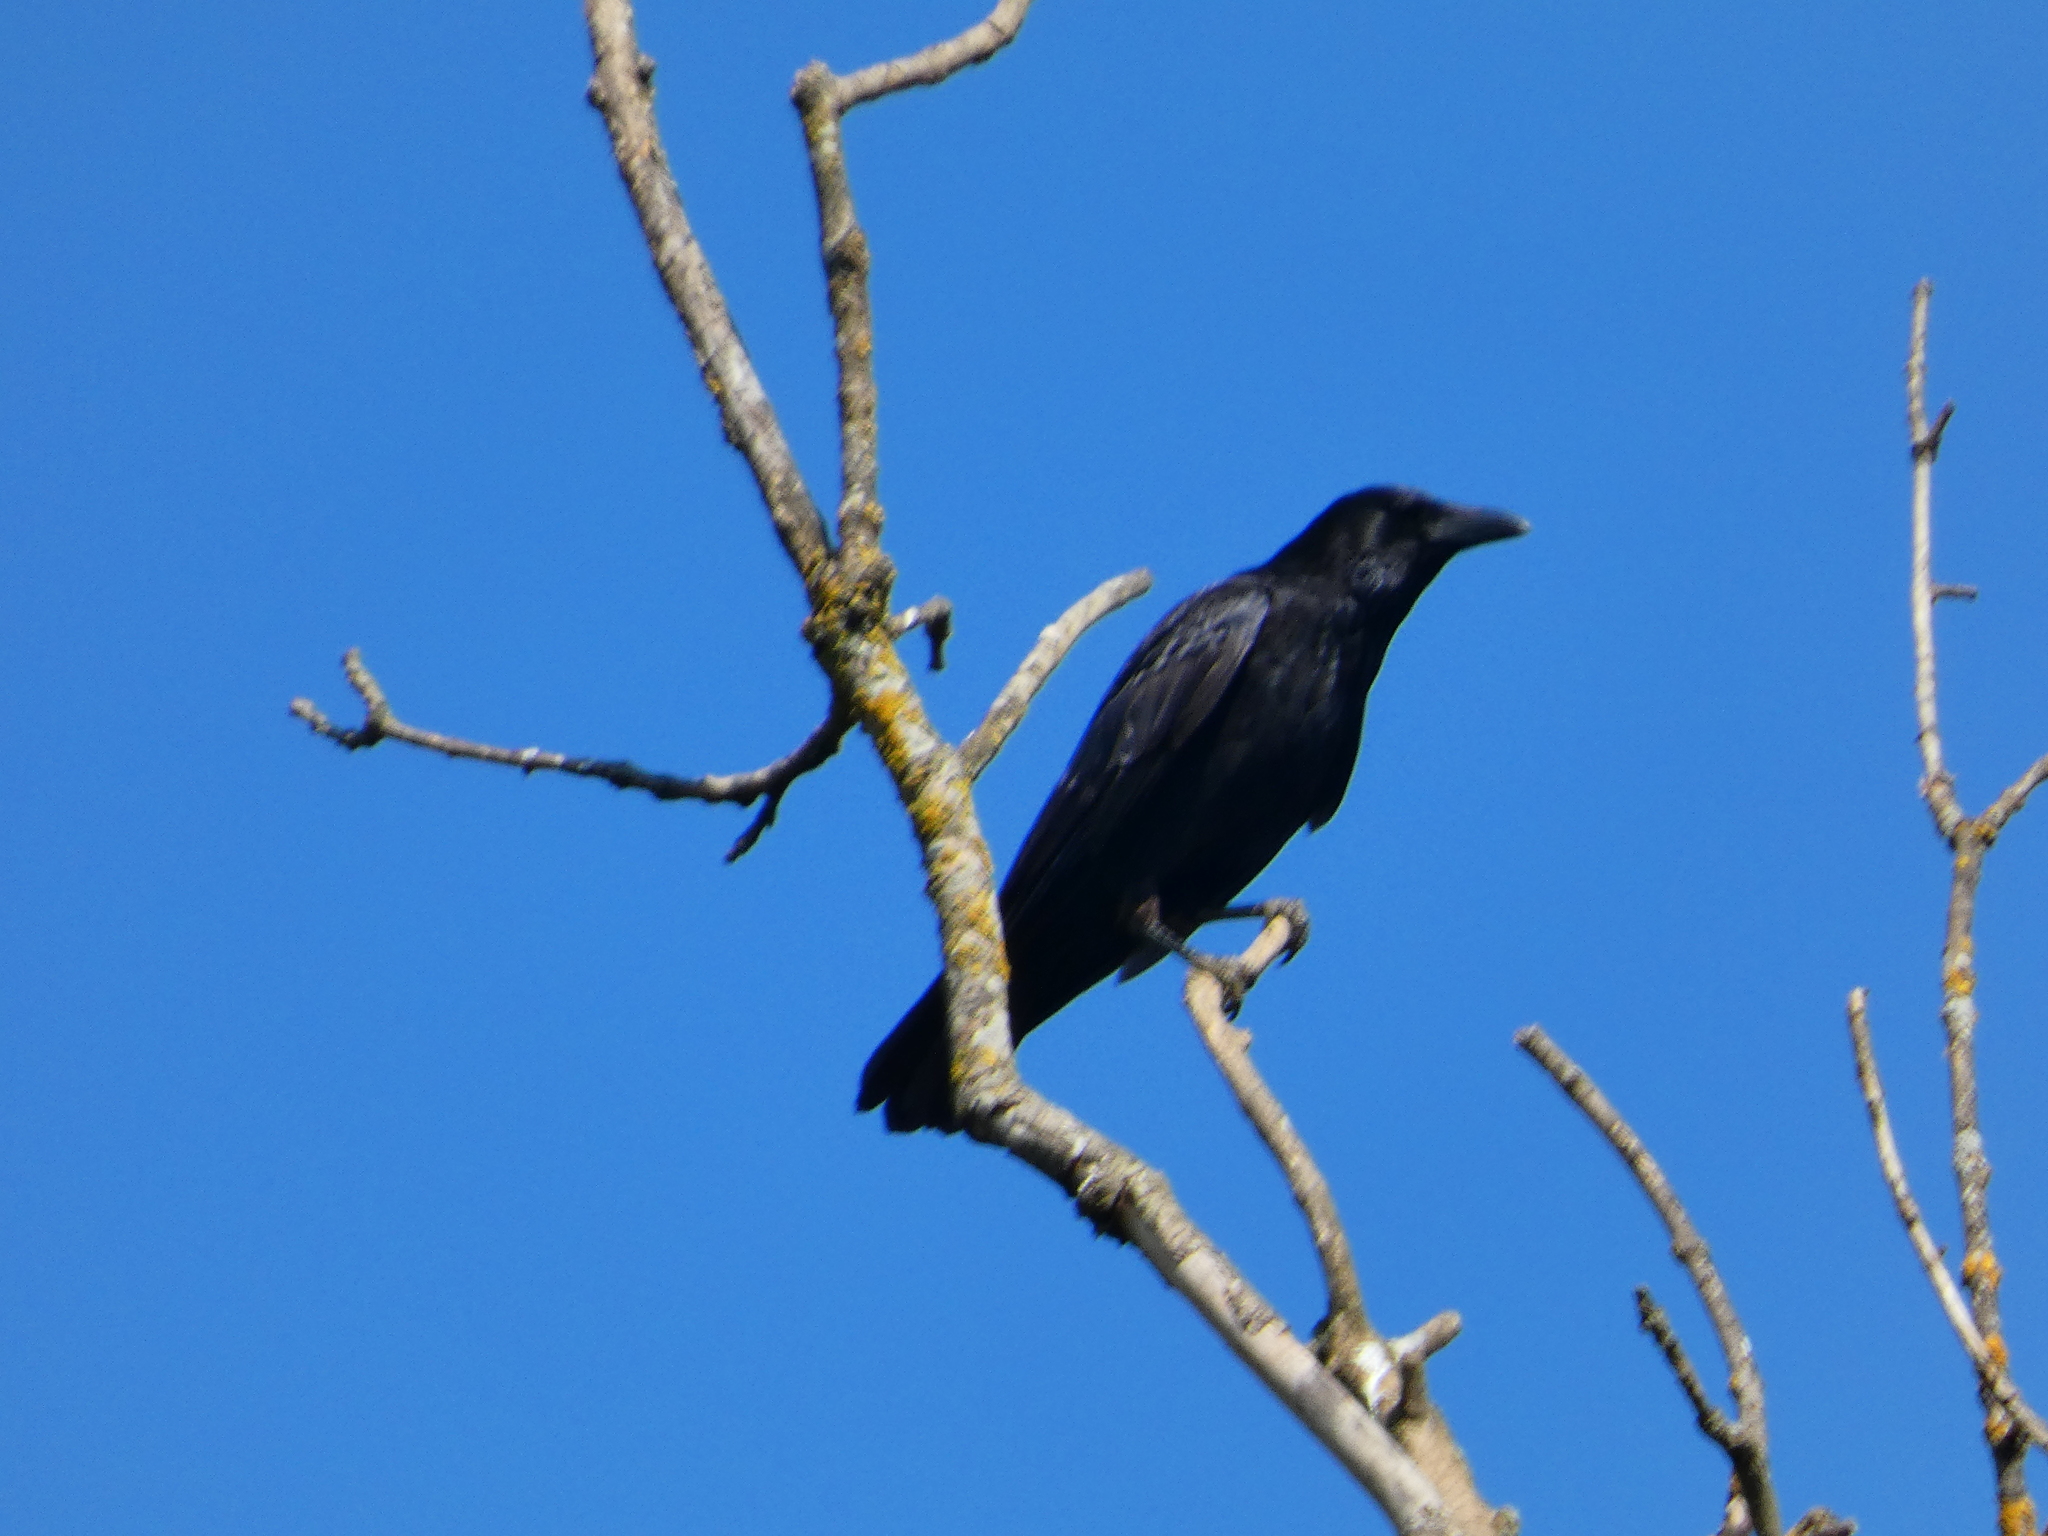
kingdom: Animalia
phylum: Chordata
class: Aves
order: Passeriformes
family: Corvidae
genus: Corvus
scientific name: Corvus corone
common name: Carrion crow
